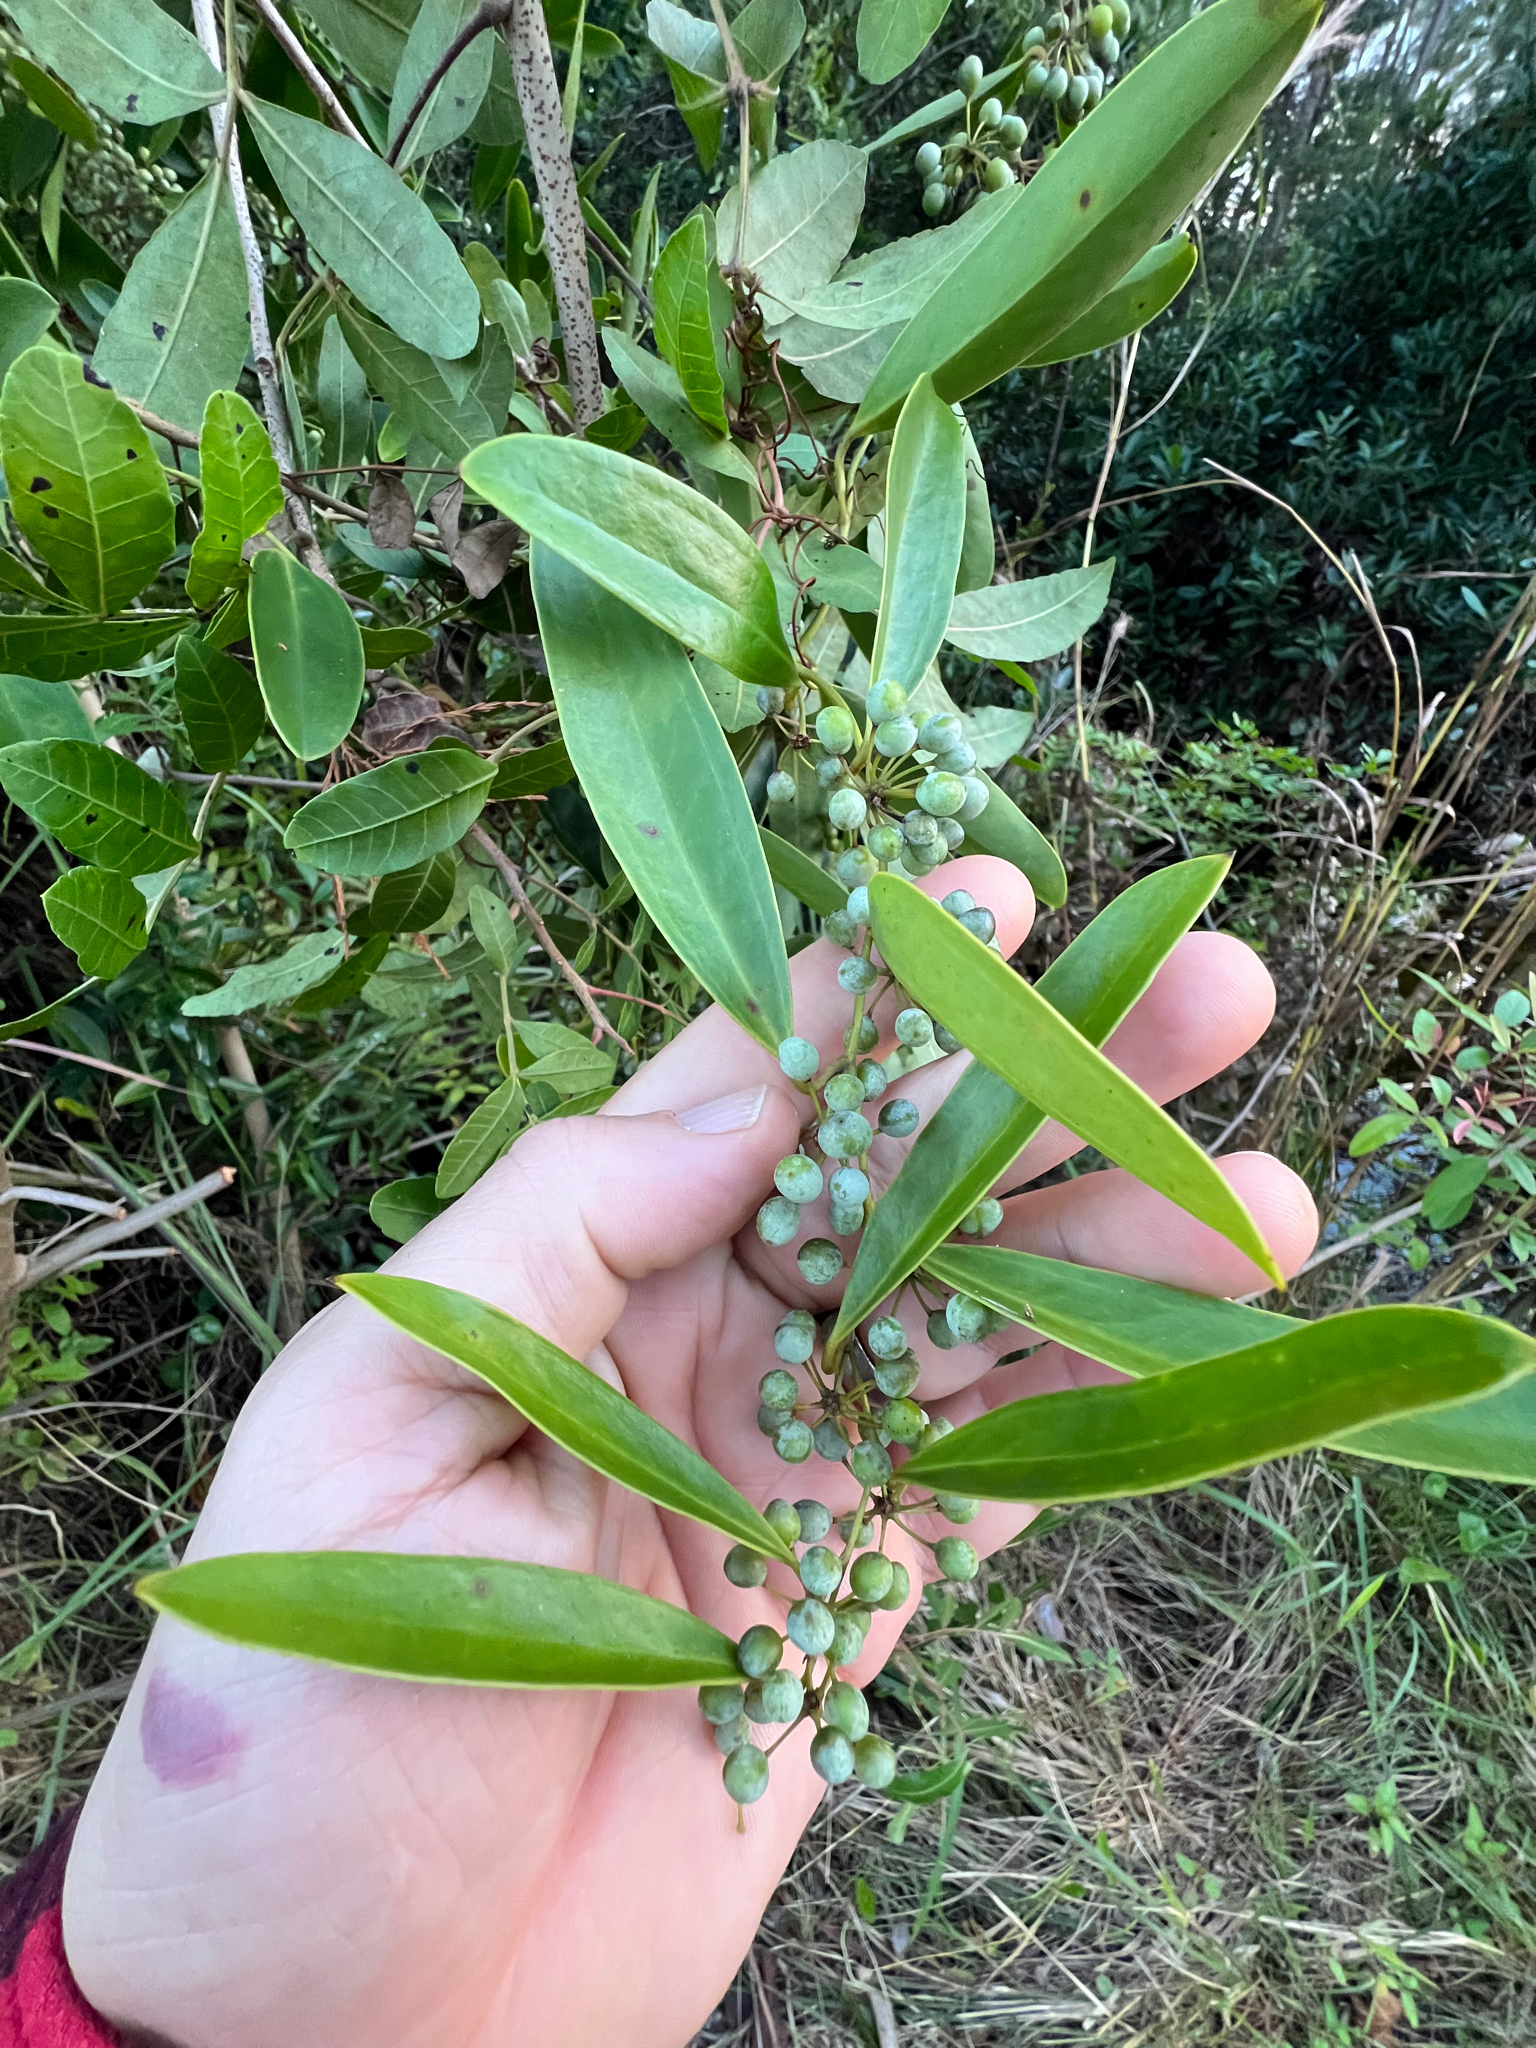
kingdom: Plantae
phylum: Tracheophyta
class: Liliopsida
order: Liliales
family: Smilacaceae
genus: Smilax
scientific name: Smilax laurifolia
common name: Bamboovine
